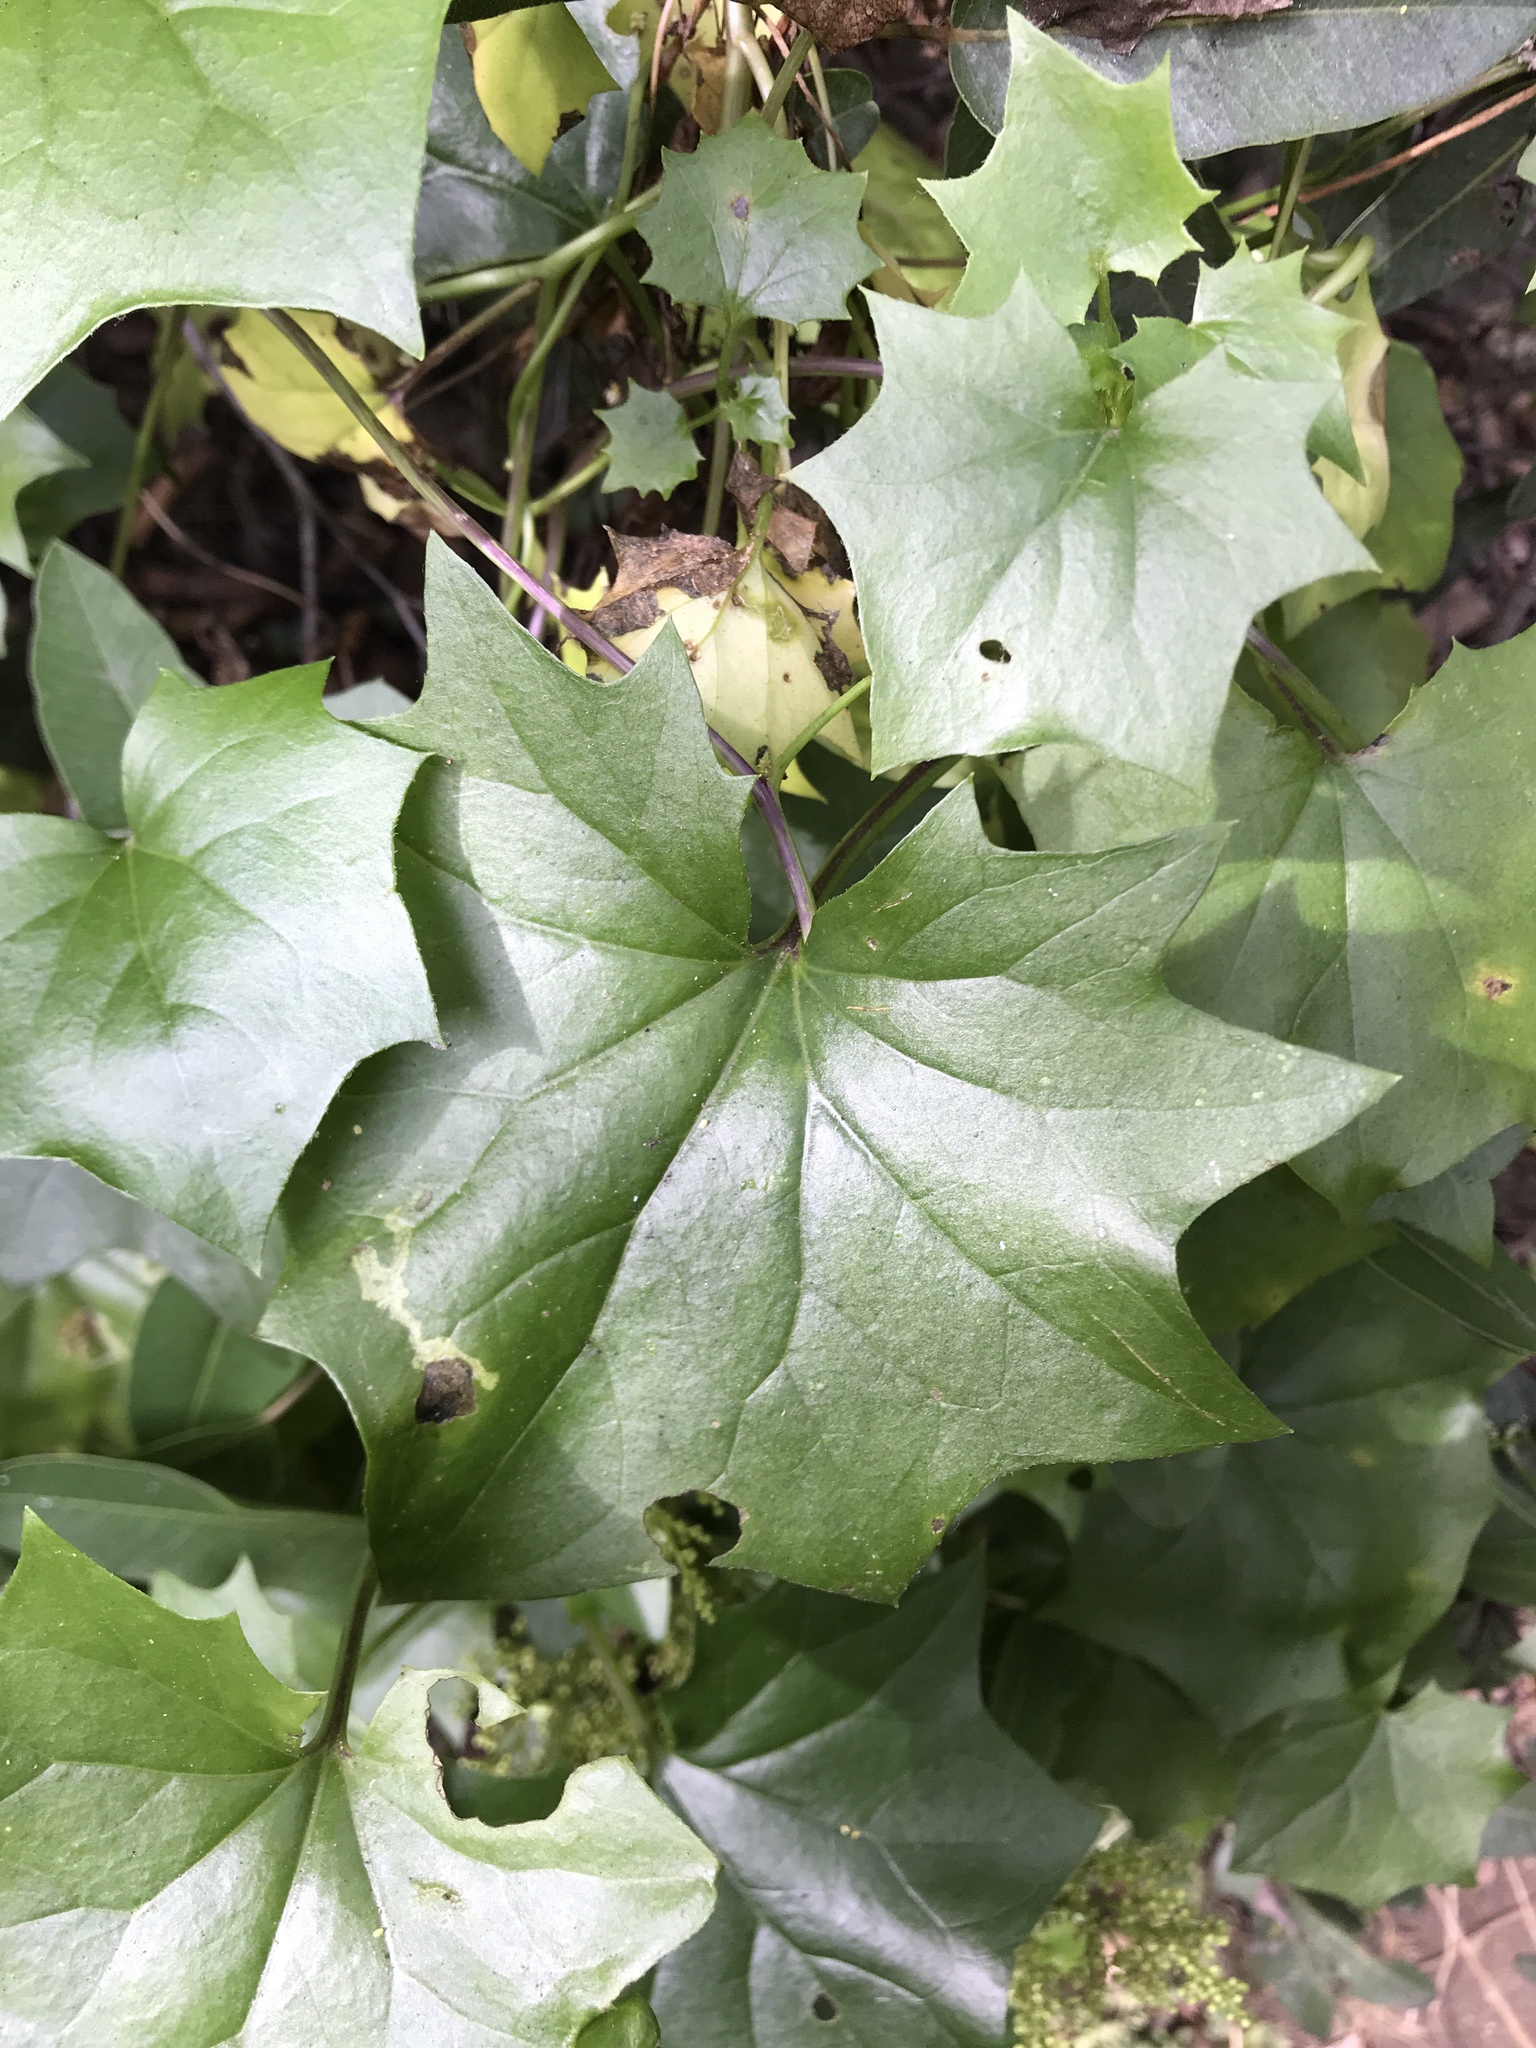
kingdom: Plantae
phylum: Tracheophyta
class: Magnoliopsida
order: Asterales
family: Asteraceae
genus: Delairea
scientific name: Delairea odorata
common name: Cape-ivy
